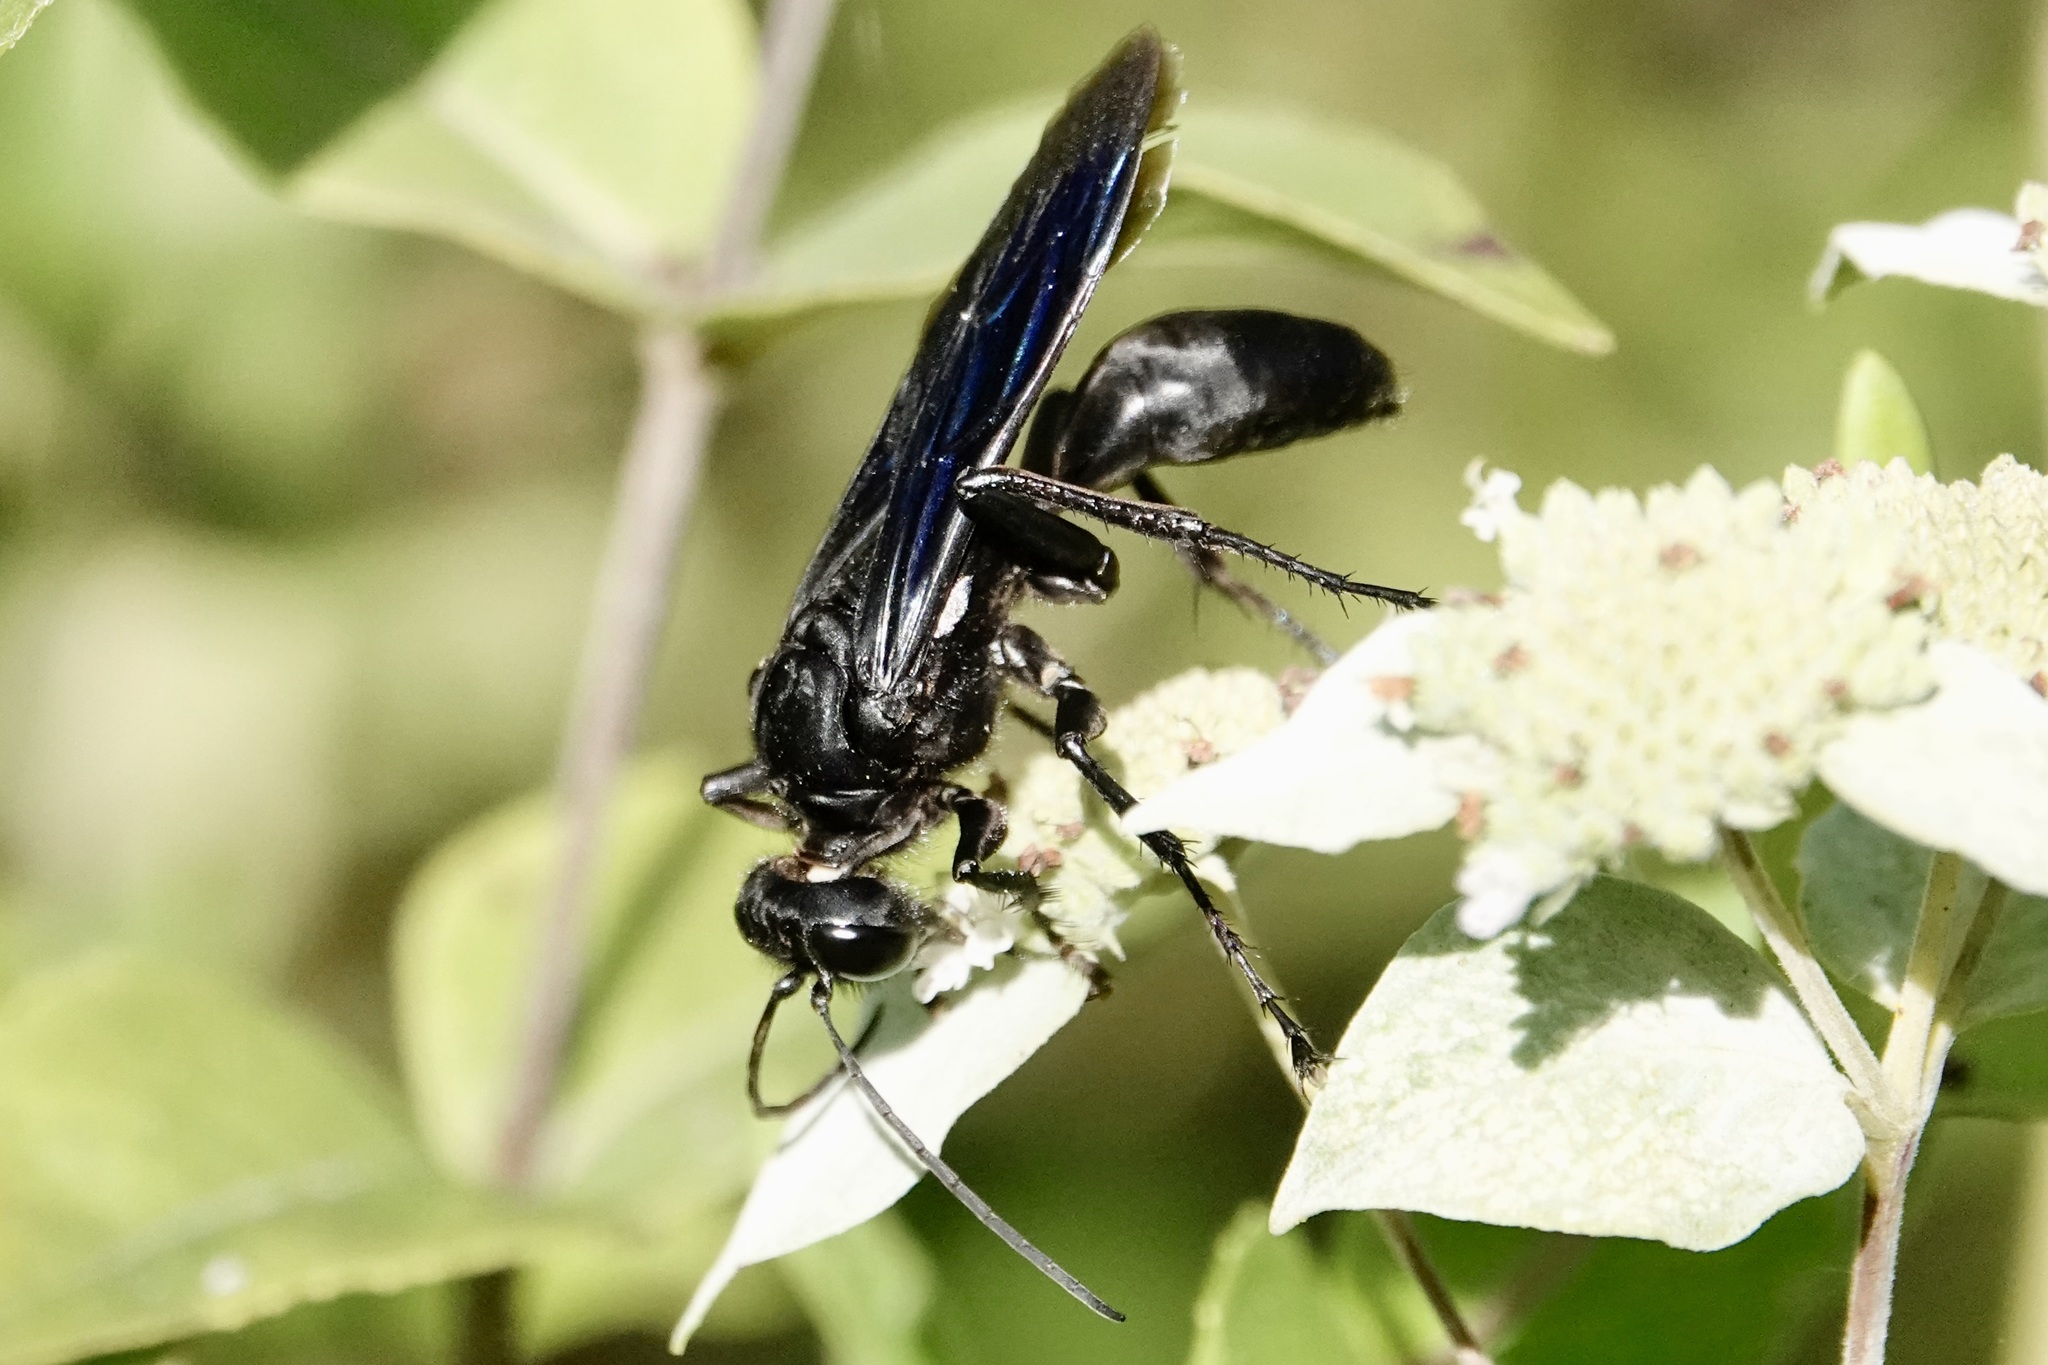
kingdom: Animalia
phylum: Arthropoda
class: Insecta
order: Hymenoptera
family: Sphecidae
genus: Sphex
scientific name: Sphex pensylvanicus
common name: Great black digger wasp
